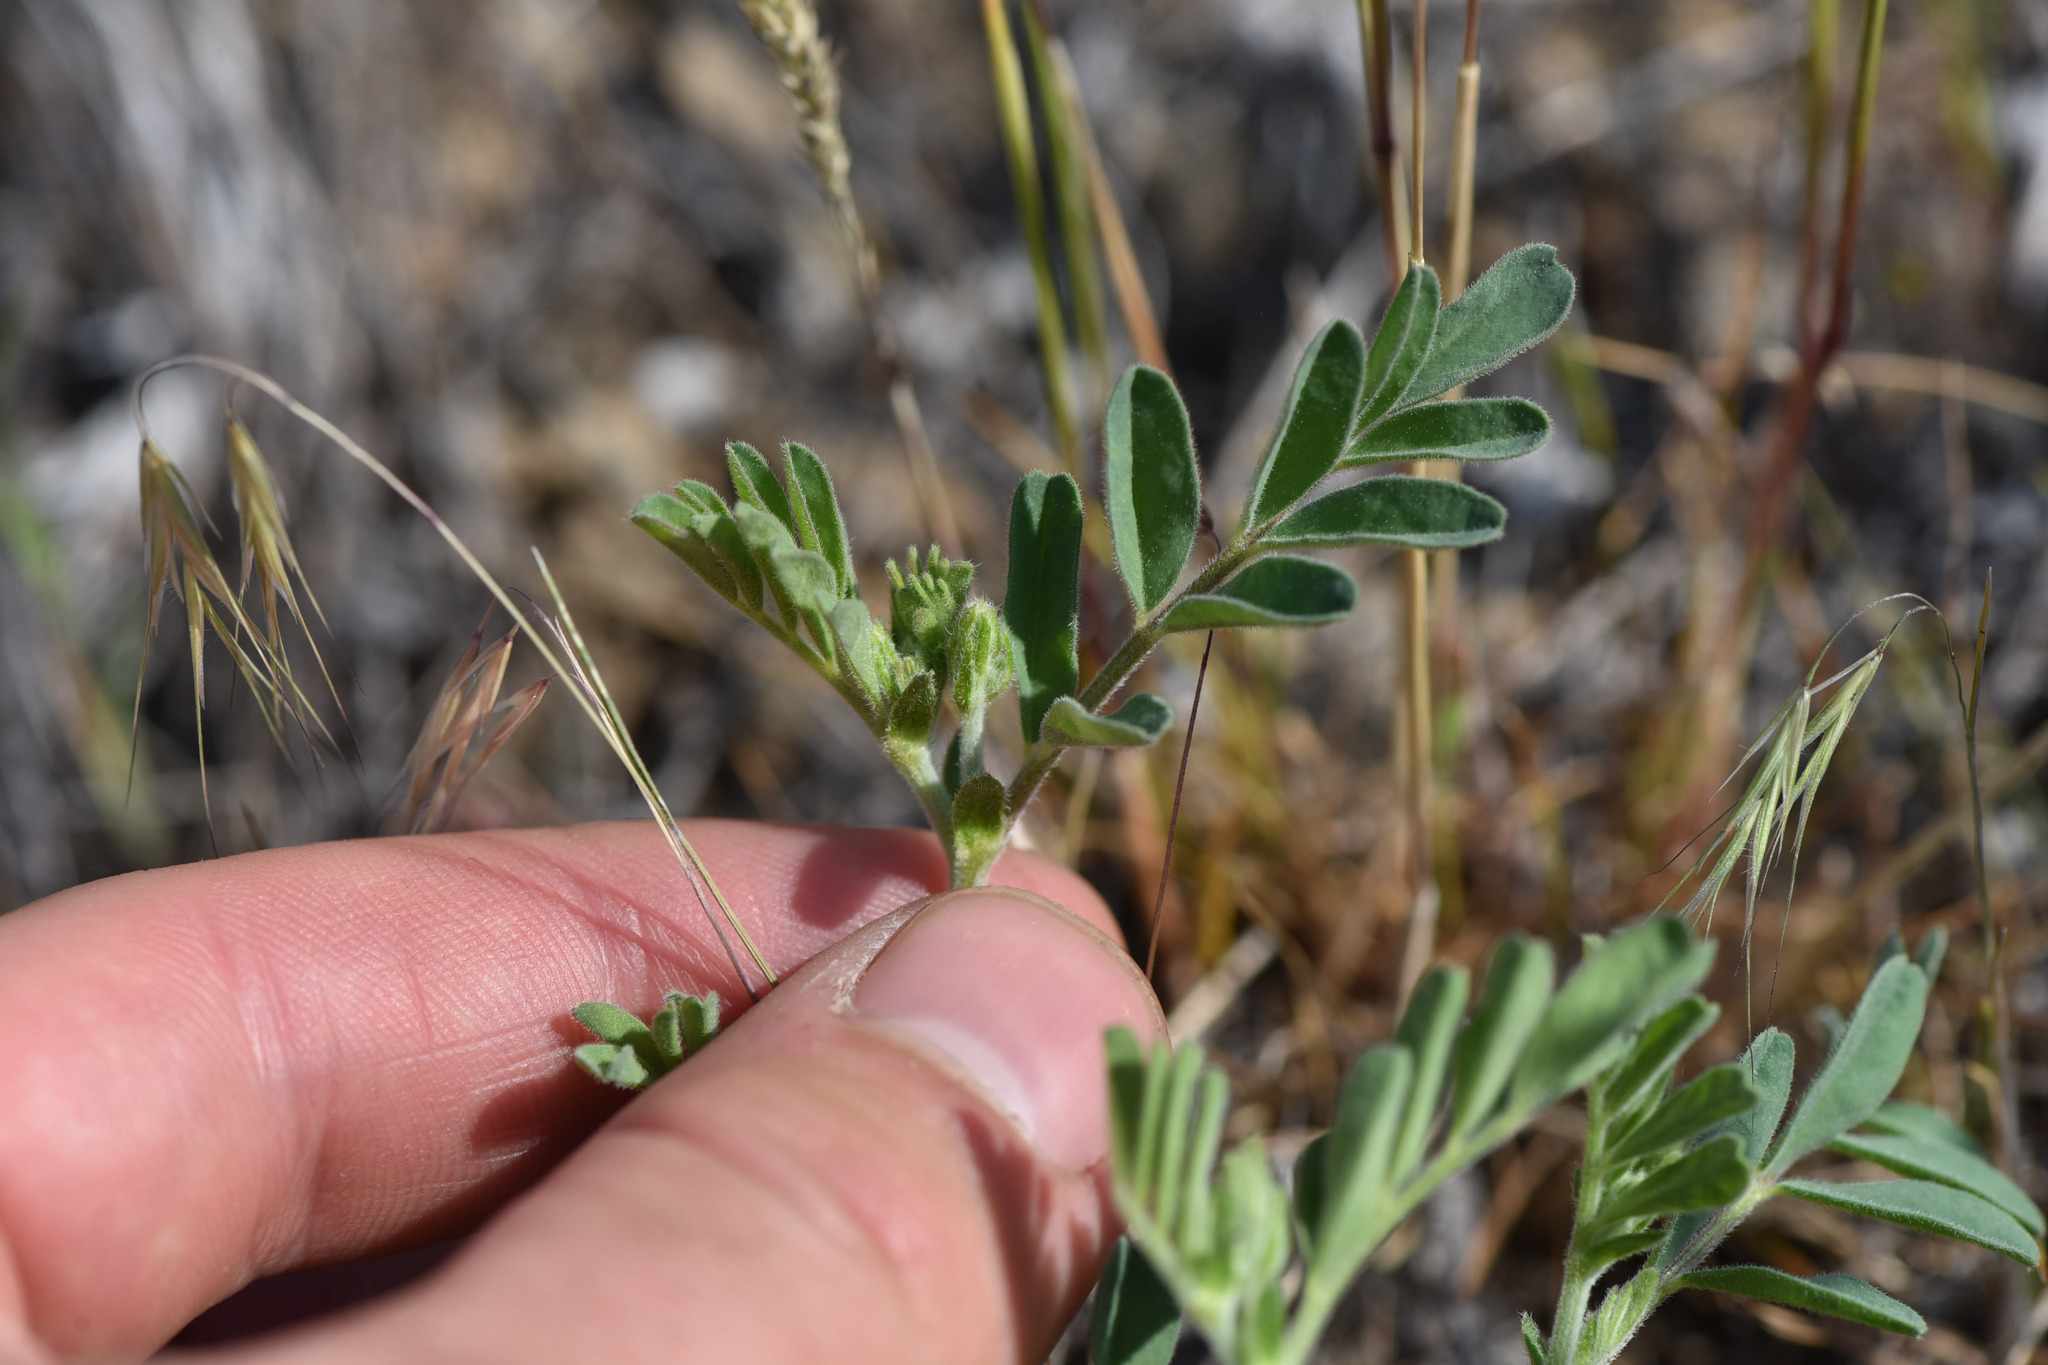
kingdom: Plantae
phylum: Tracheophyta
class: Magnoliopsida
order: Fabales
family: Fabaceae
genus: Astragalus
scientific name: Astragalus collinus
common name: Hill milk-vetch
